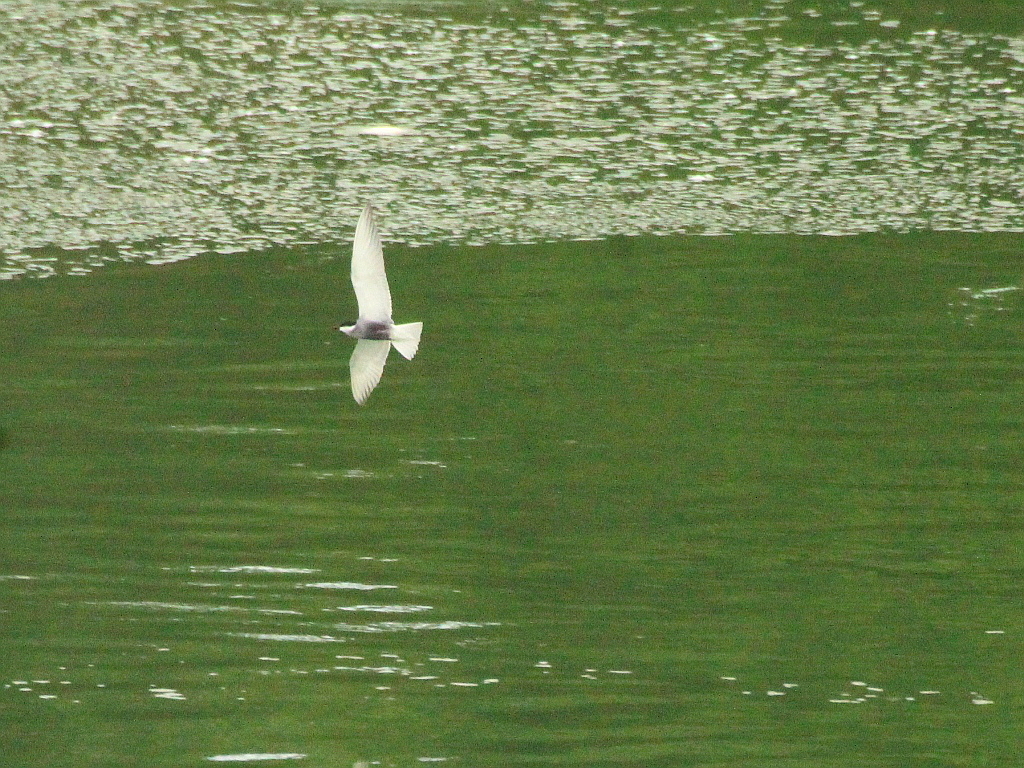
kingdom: Animalia
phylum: Chordata
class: Aves
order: Charadriiformes
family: Laridae
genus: Chlidonias
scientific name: Chlidonias hybrida
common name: Whiskered tern
